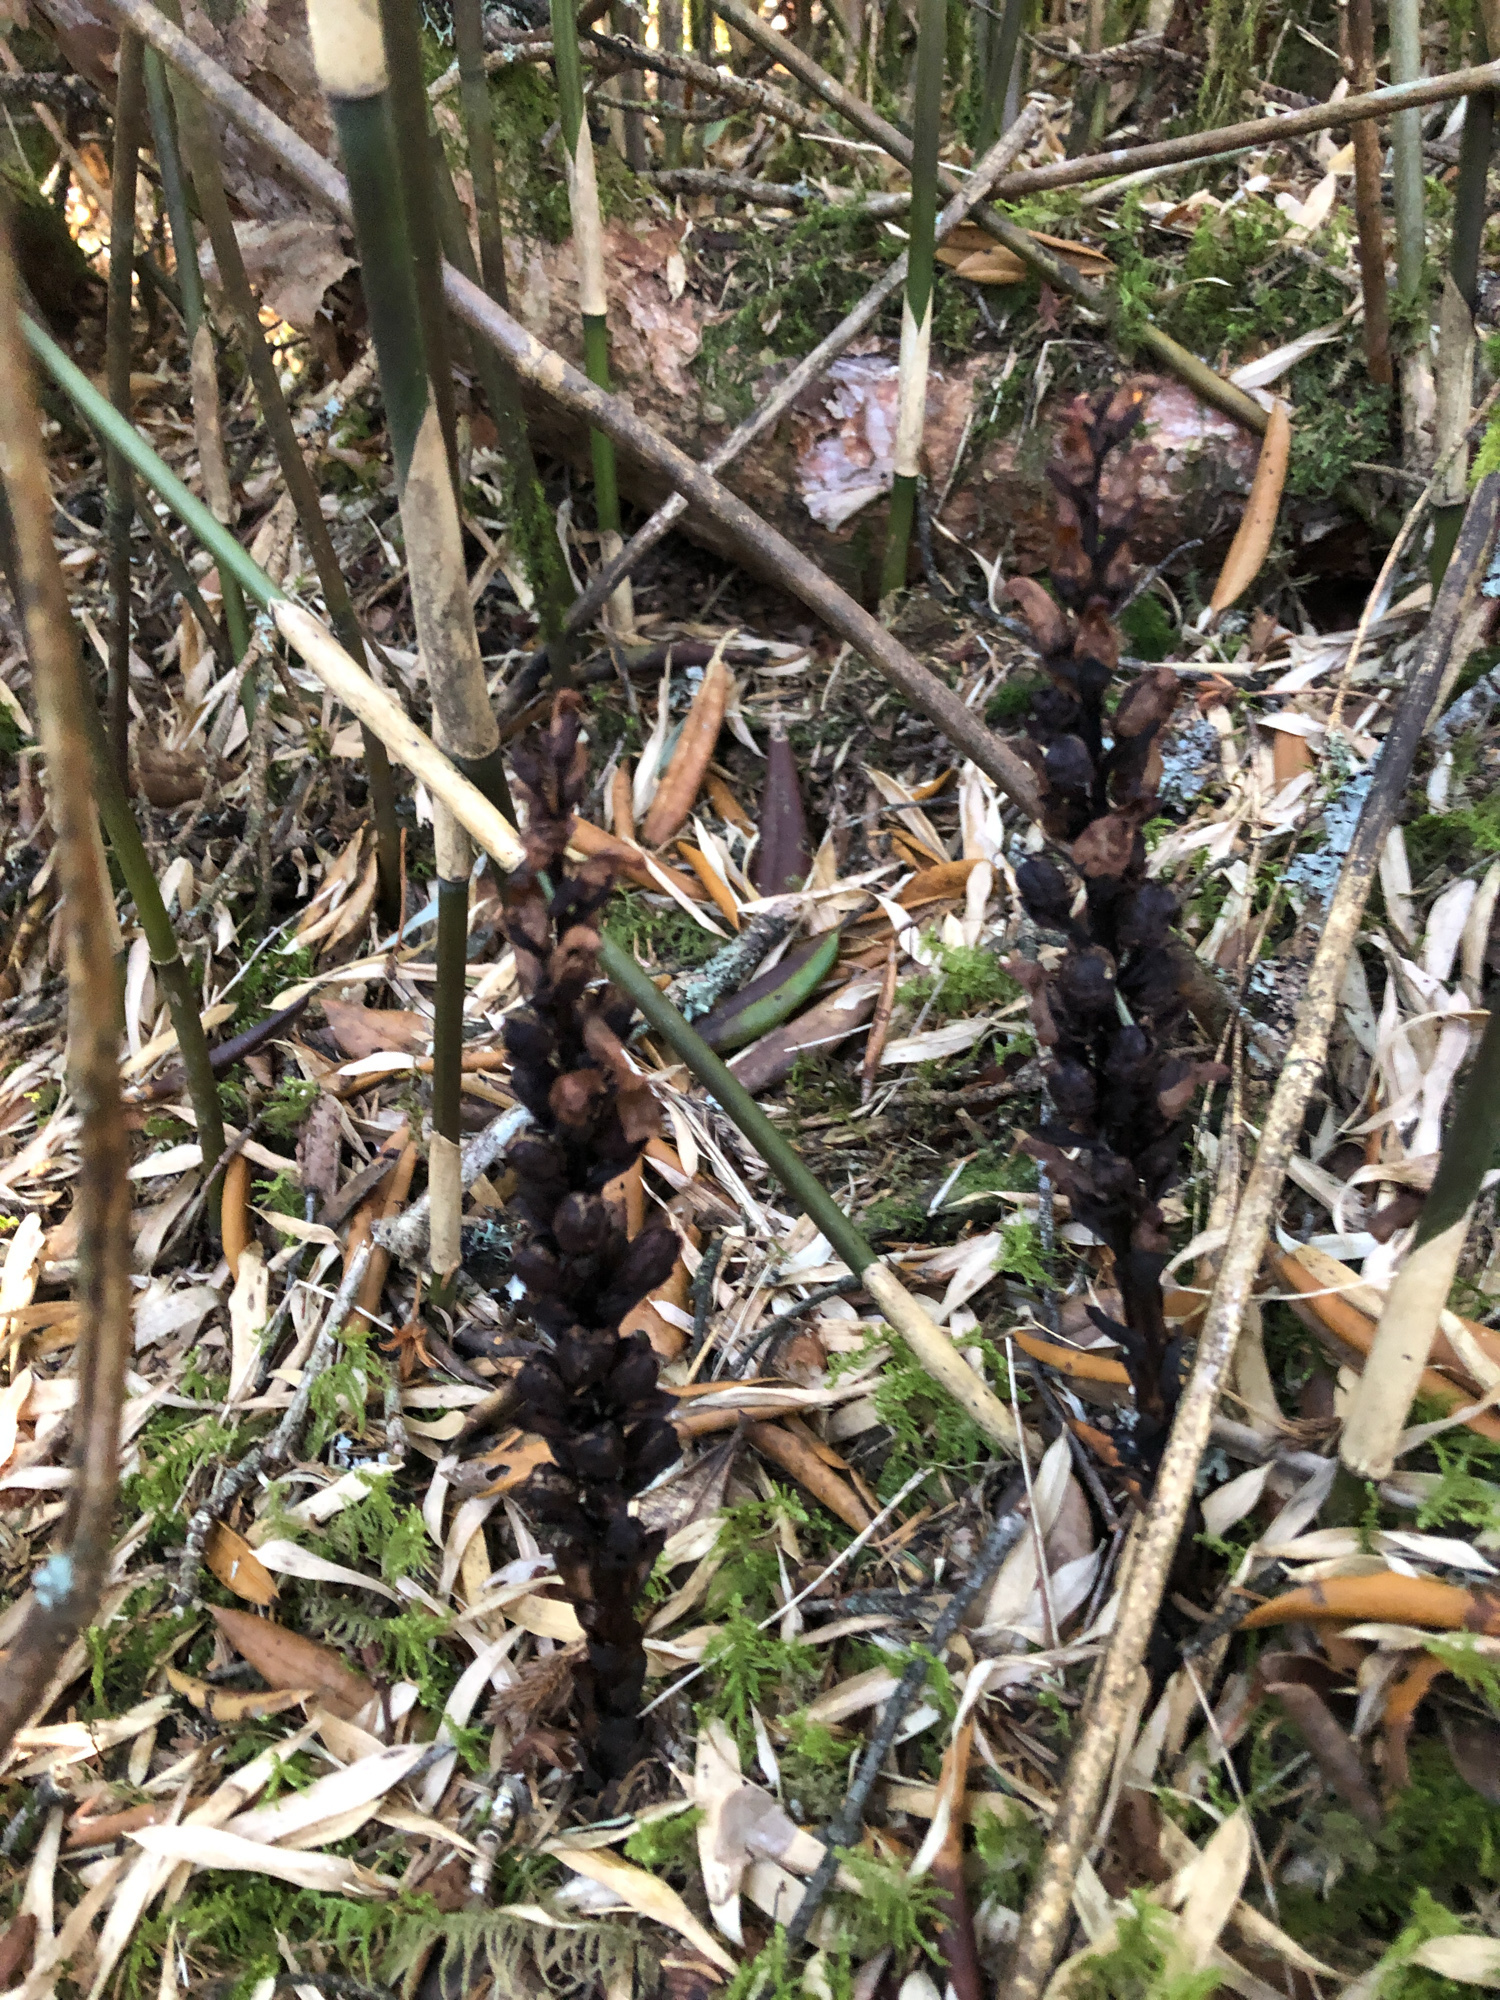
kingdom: Plantae
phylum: Tracheophyta
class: Magnoliopsida
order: Lamiales
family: Orobanchaceae
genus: Boschniakia
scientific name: Boschniakia himalaica
